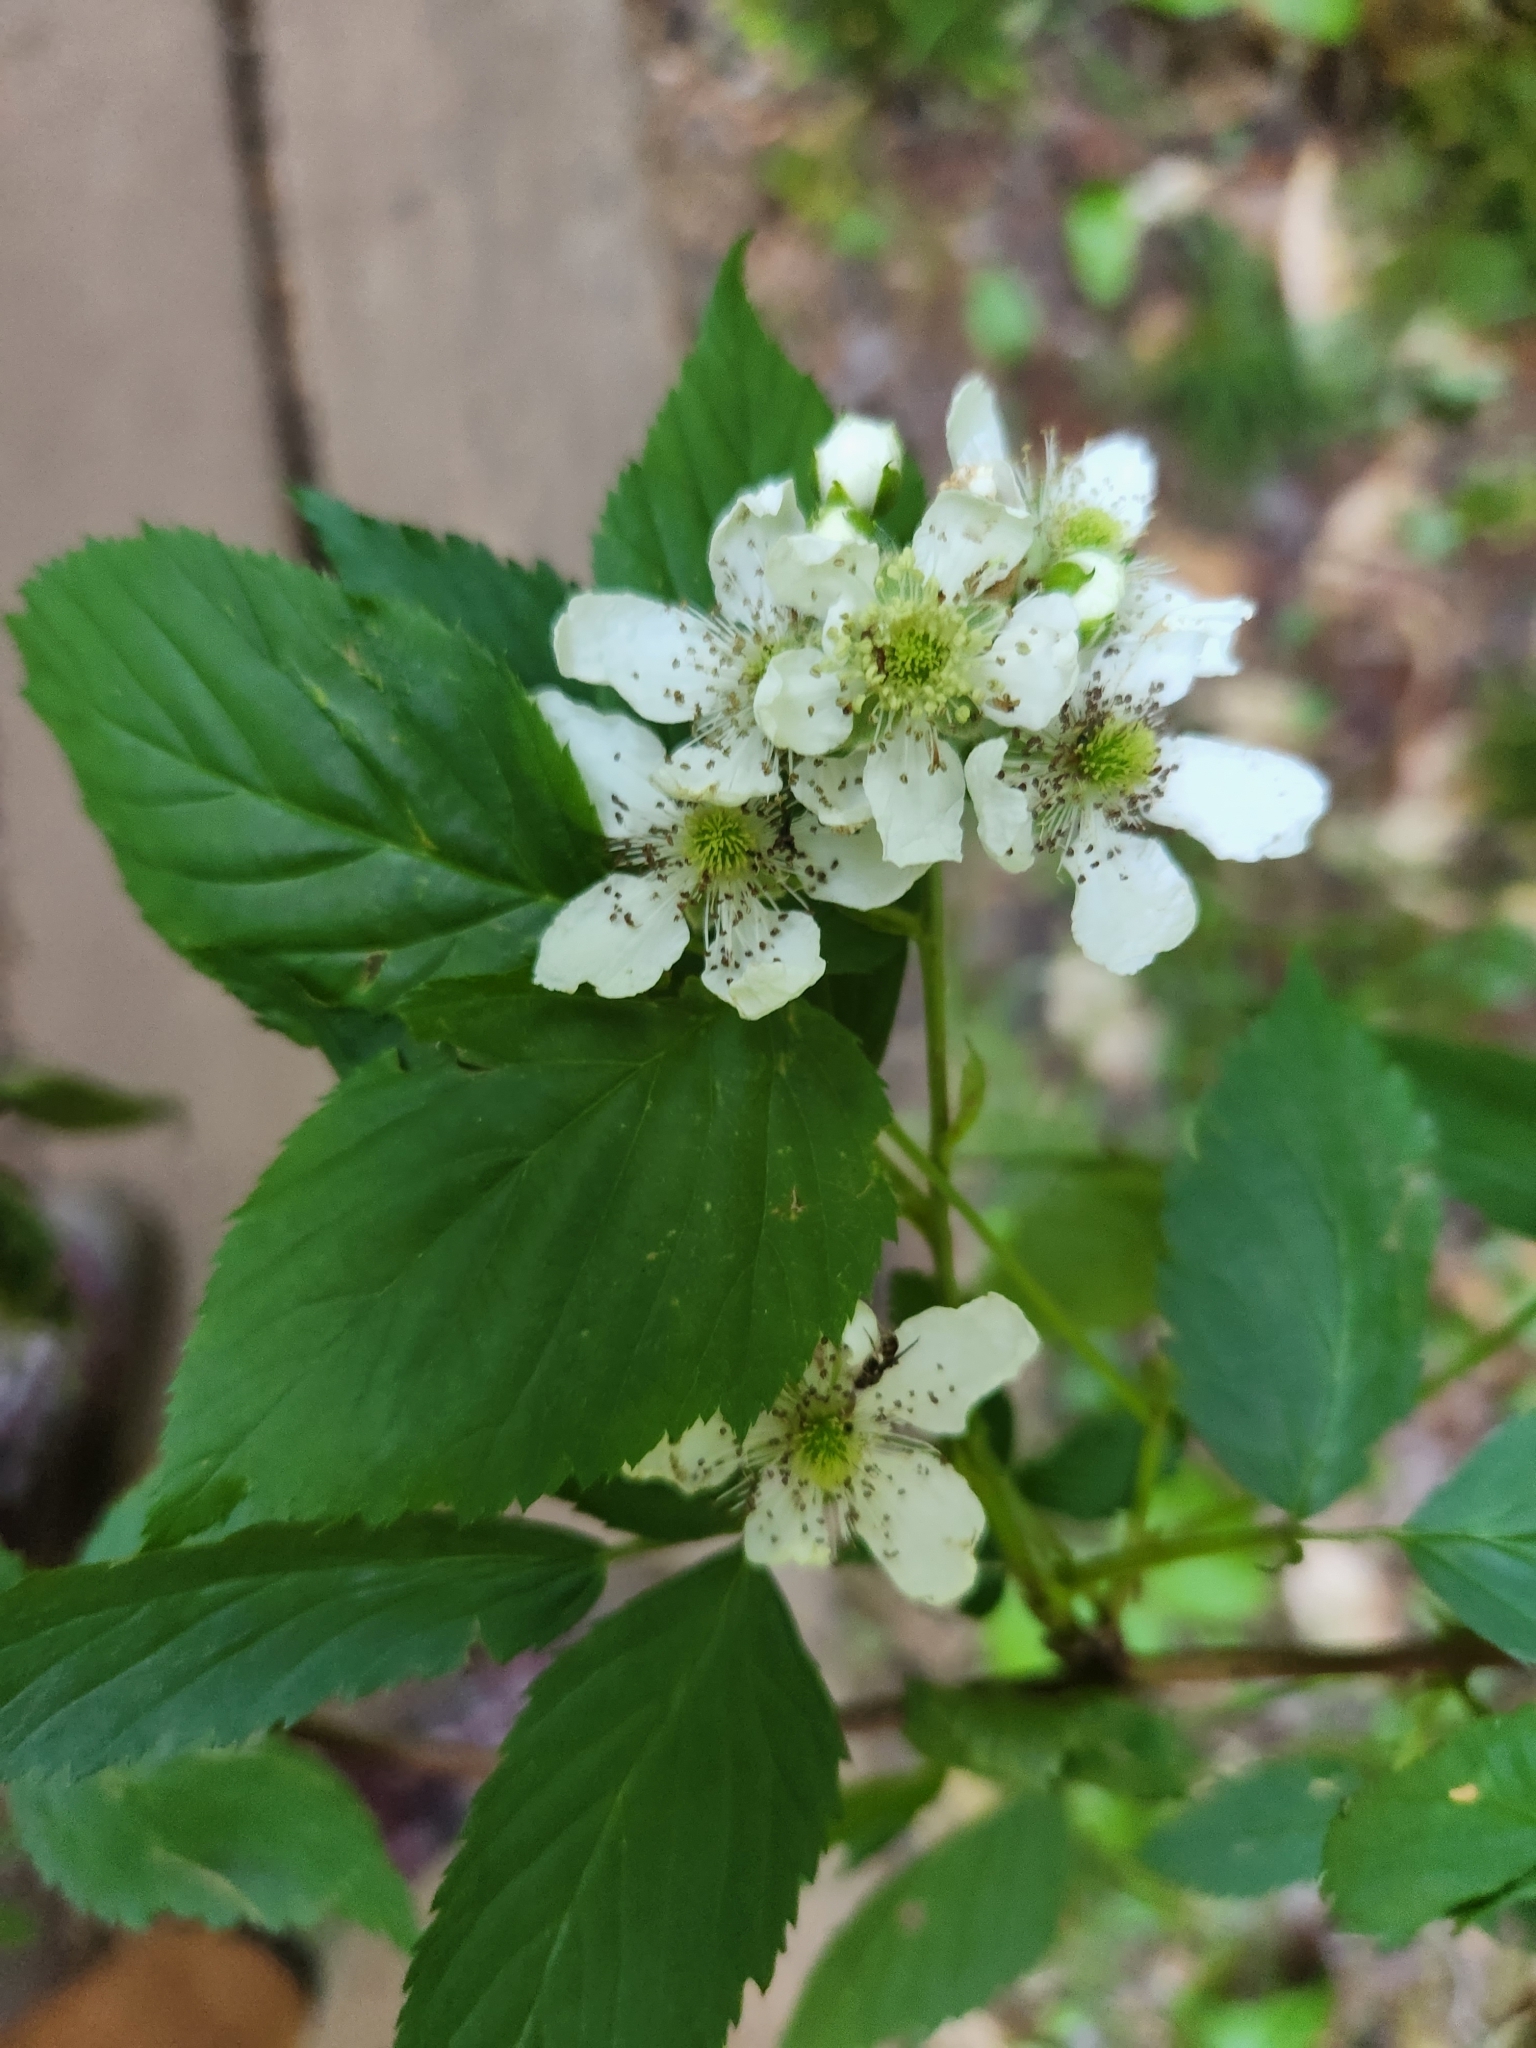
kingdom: Plantae
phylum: Tracheophyta
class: Magnoliopsida
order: Rosales
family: Rosaceae
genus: Rubus
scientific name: Rubus allegheniensis
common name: Allegheny blackberry
